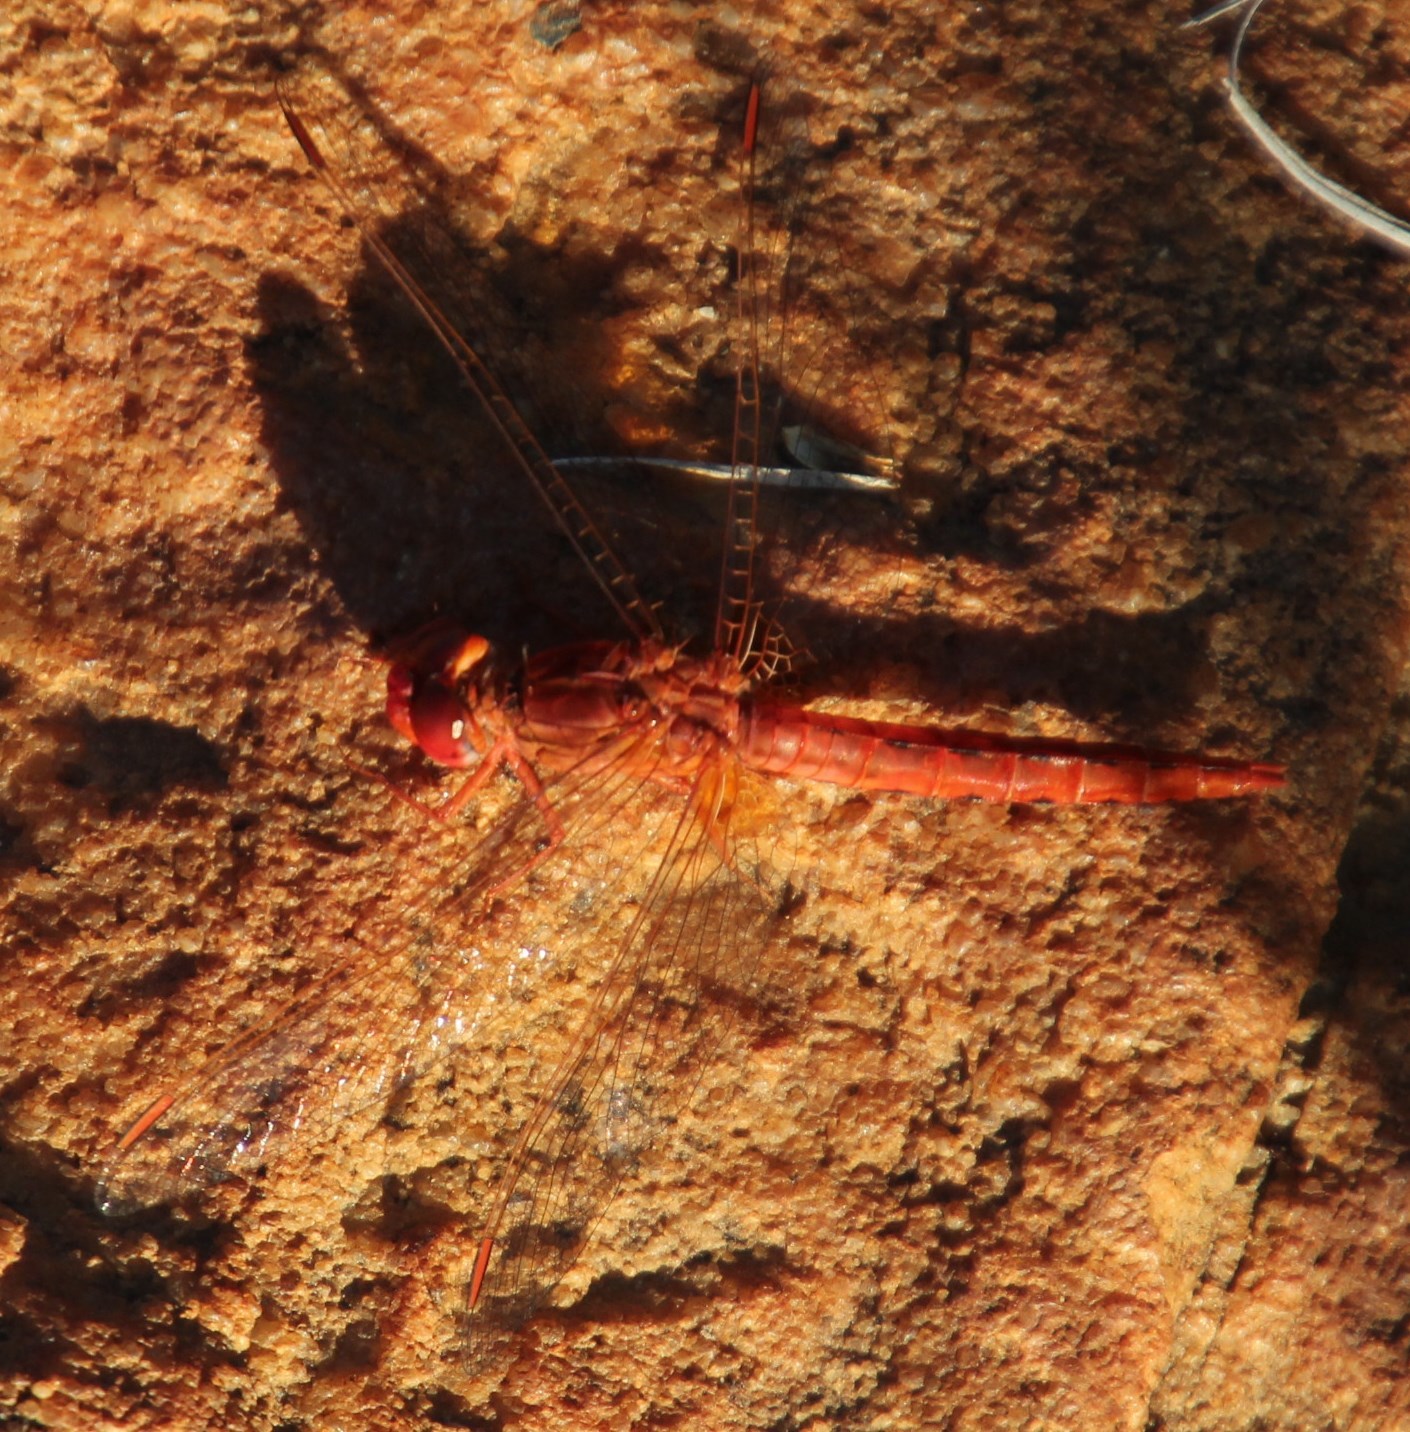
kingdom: Animalia
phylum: Arthropoda
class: Insecta
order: Odonata
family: Libellulidae
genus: Crocothemis
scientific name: Crocothemis sanguinolenta
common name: Little scarlet
